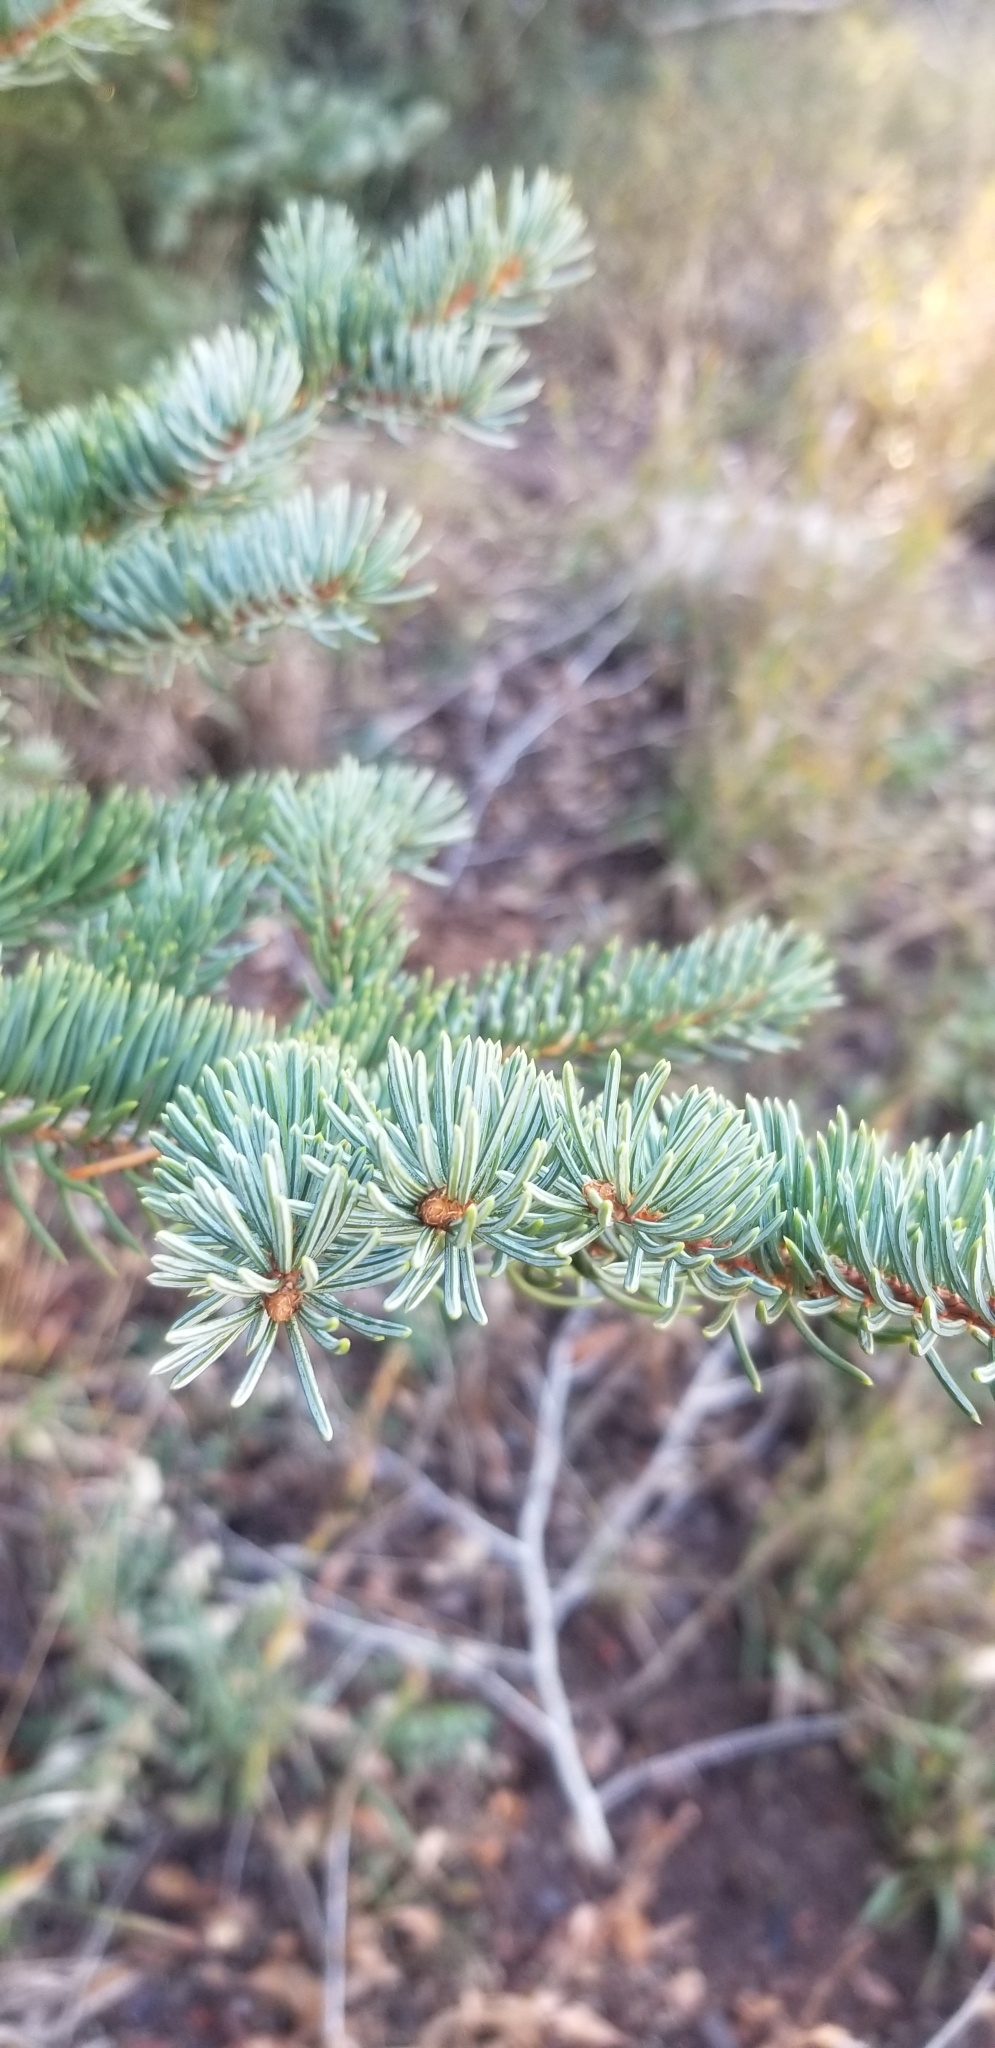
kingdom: Plantae
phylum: Tracheophyta
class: Pinopsida
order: Pinales
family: Pinaceae
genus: Picea
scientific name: Picea pungens
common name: Colorado spruce
